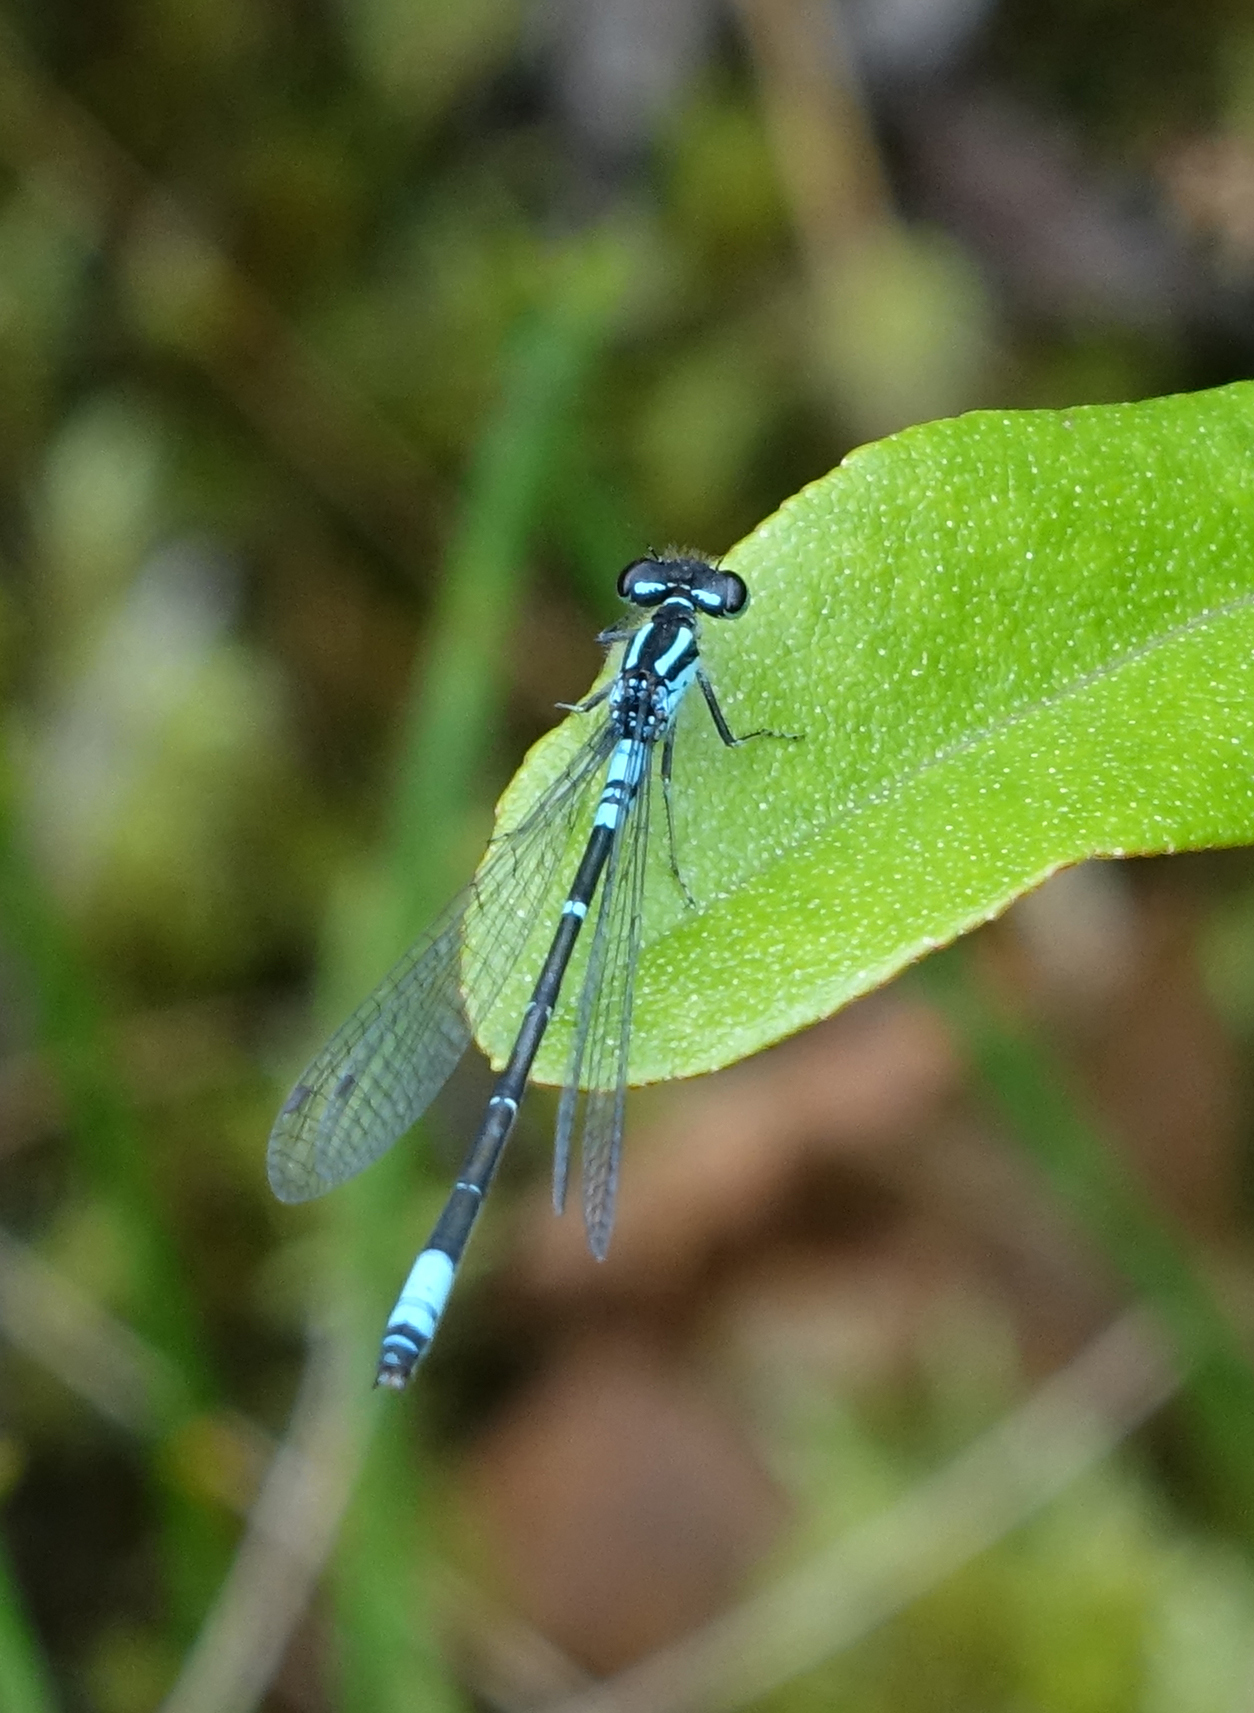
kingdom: Animalia
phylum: Arthropoda
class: Insecta
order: Odonata
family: Coenagrionidae
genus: Coenagrion
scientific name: Coenagrion glaciale
